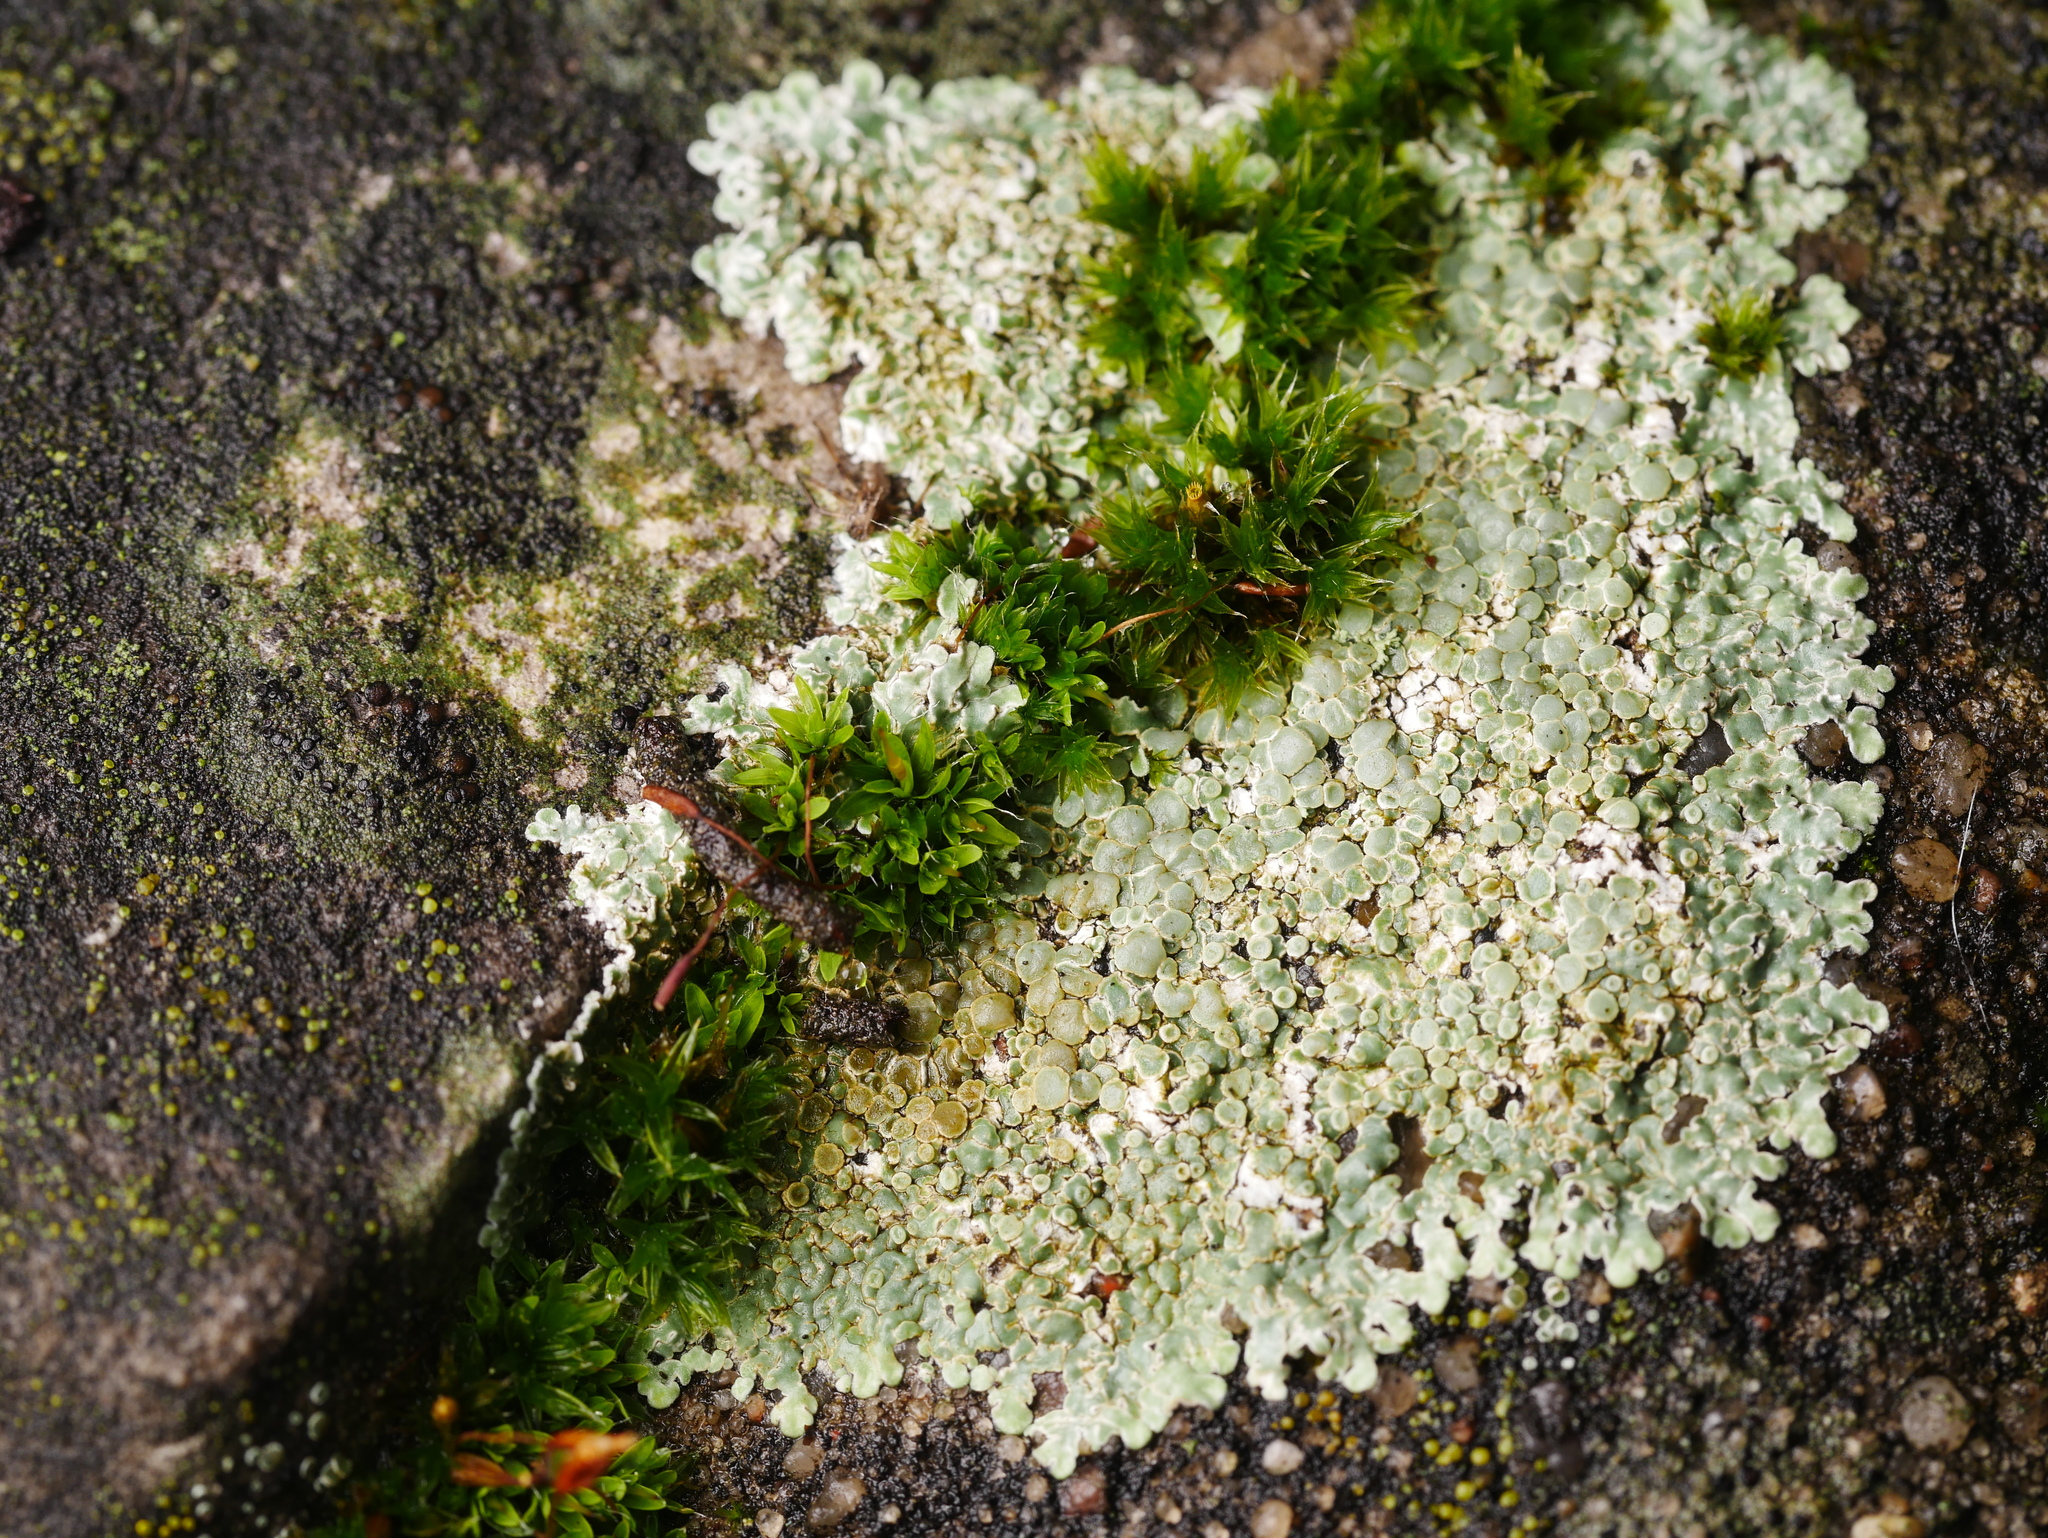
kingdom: Fungi
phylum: Ascomycota
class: Lecanoromycetes
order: Lecanorales
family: Lecanoraceae
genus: Protoparmeliopsis
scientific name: Protoparmeliopsis muralis
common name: Stonewall rim lichen
